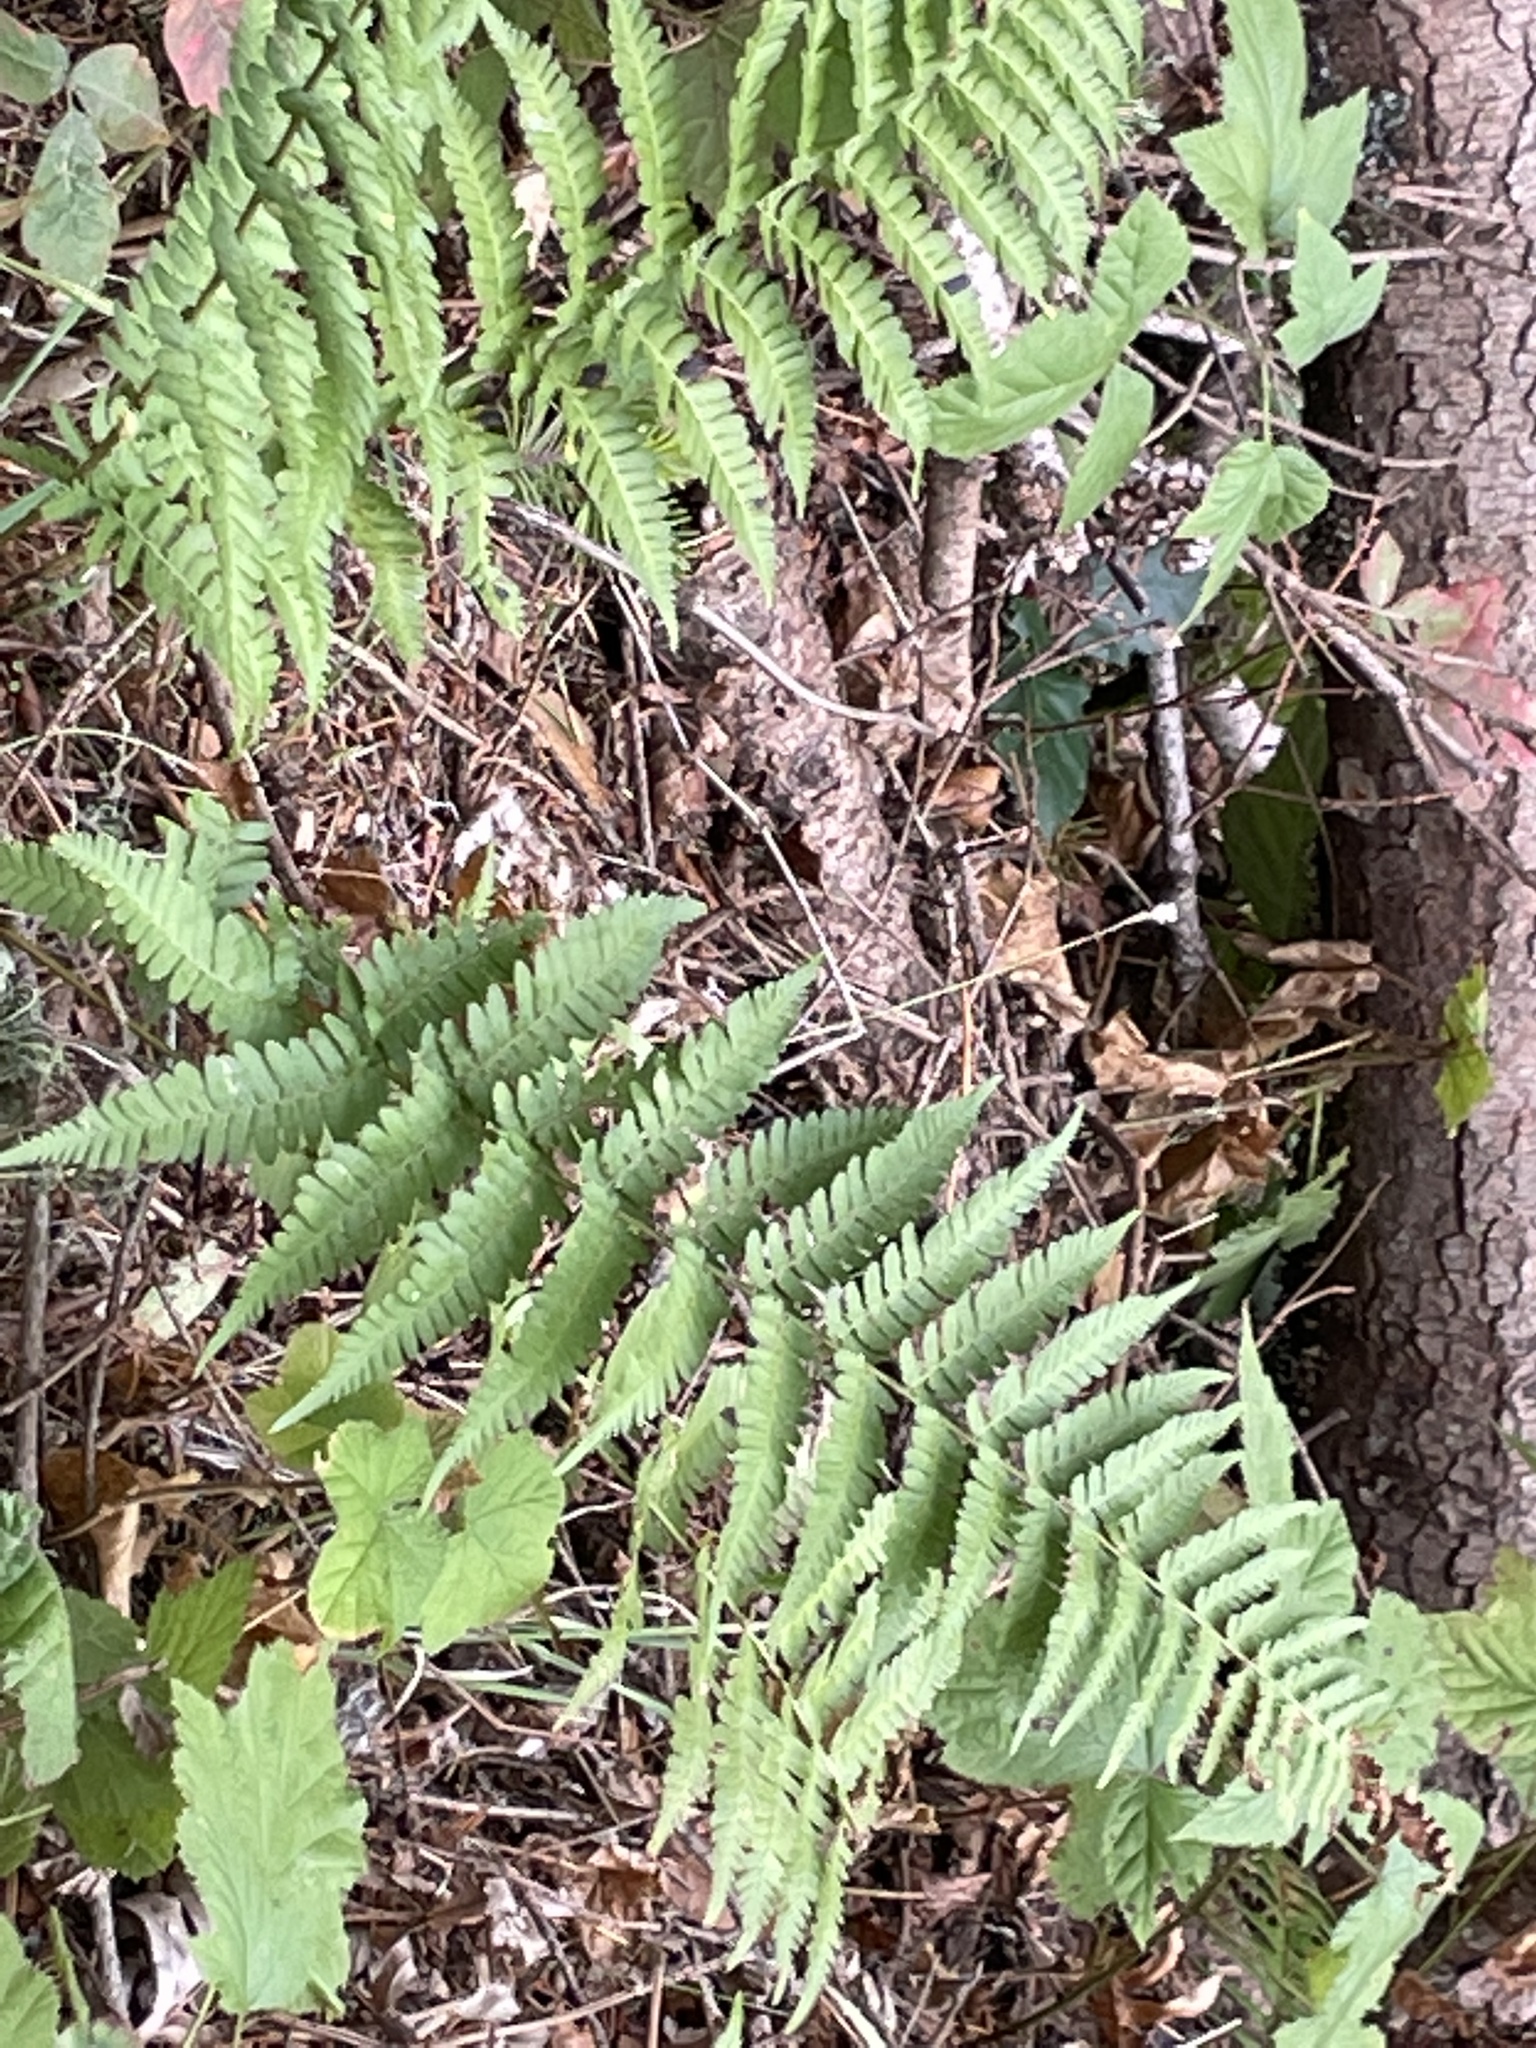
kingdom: Plantae
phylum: Tracheophyta
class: Polypodiopsida
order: Polypodiales
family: Dryopteridaceae
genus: Dryopteris
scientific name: Dryopteris arguta
